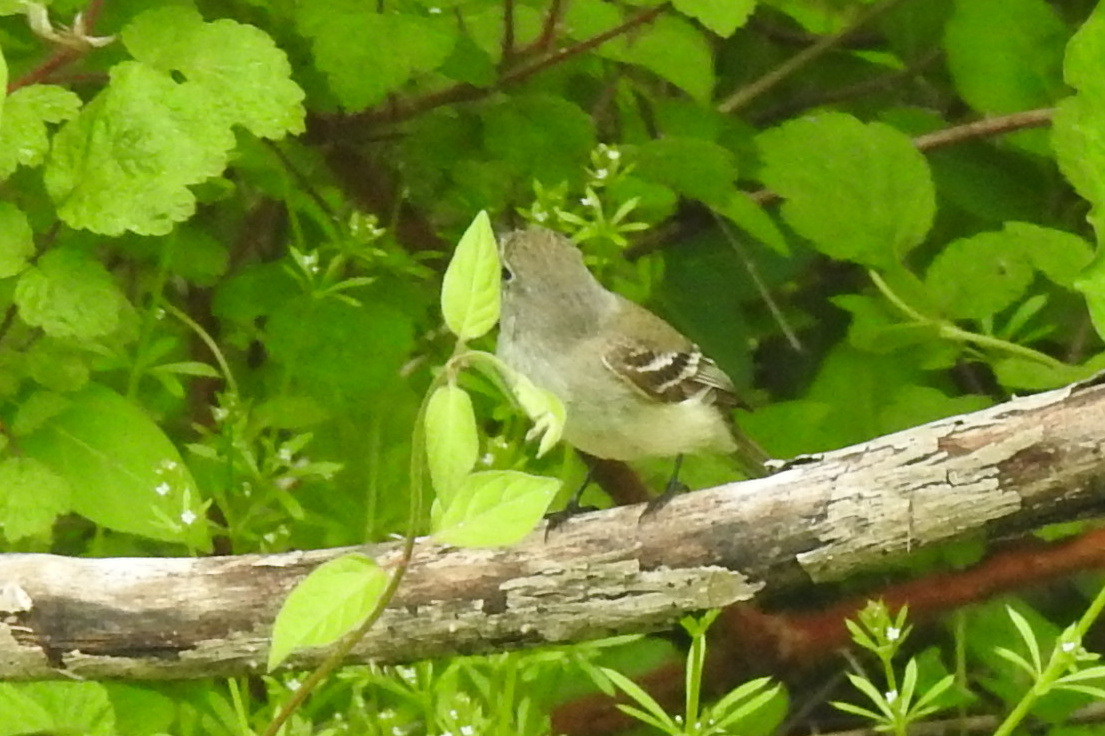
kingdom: Animalia
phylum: Chordata
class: Aves
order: Passeriformes
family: Tyrannidae
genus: Empidonax
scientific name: Empidonax minimus
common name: Least flycatcher
